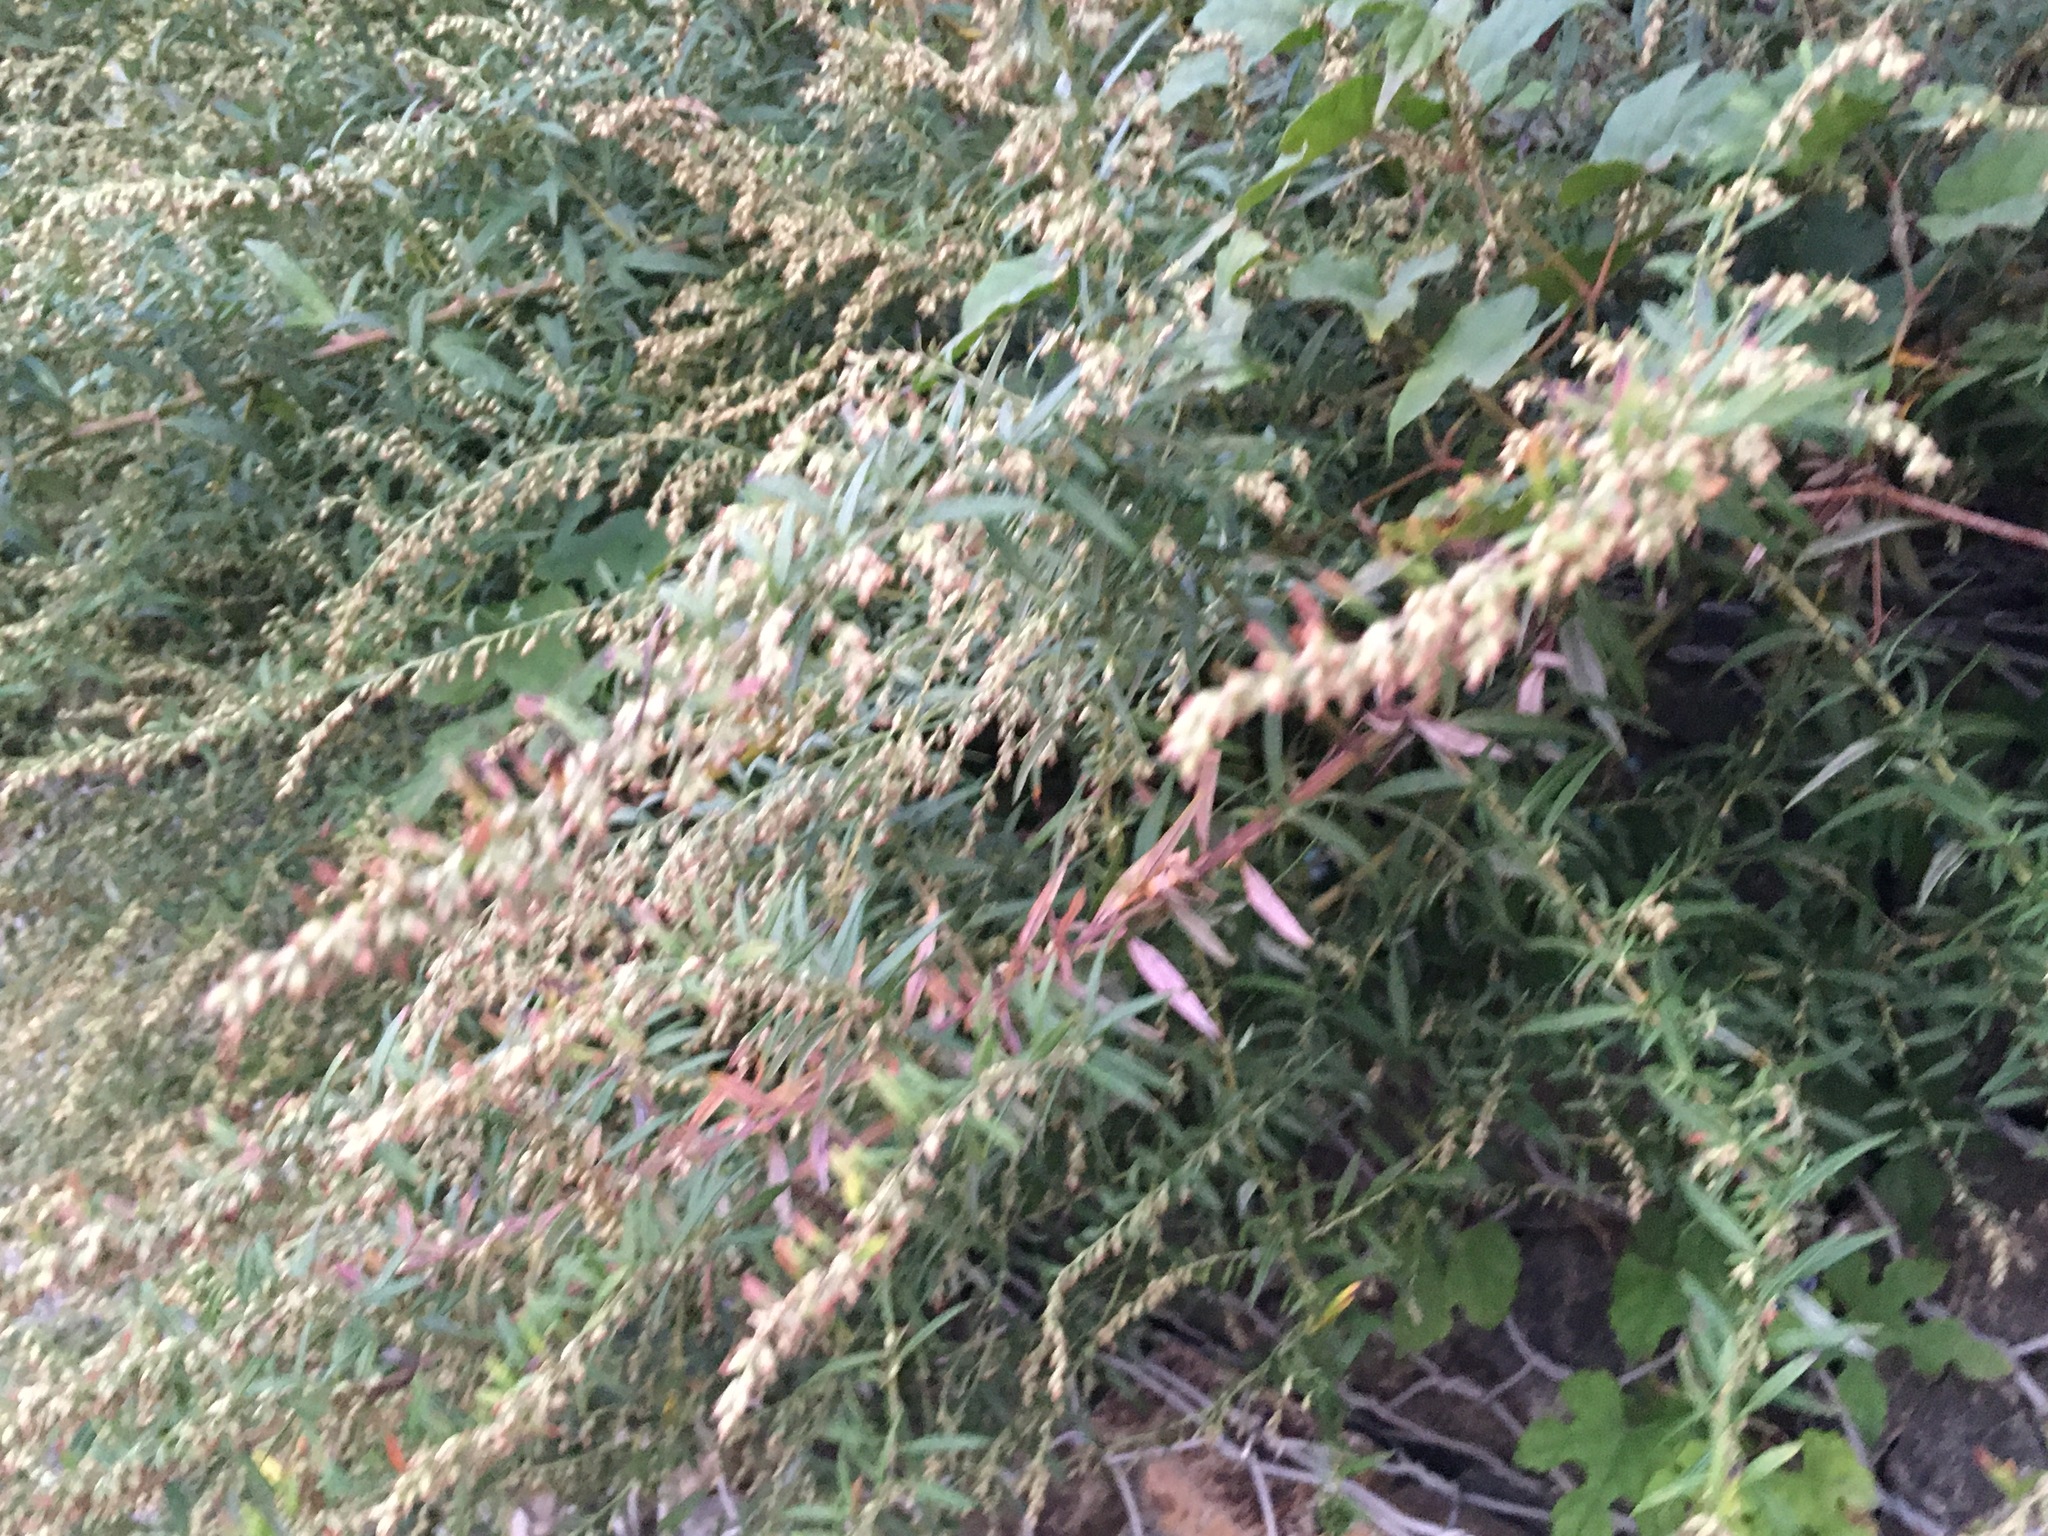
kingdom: Plantae
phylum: Tracheophyta
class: Magnoliopsida
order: Asterales
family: Asteraceae
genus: Artemisia
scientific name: Artemisia vulgaris
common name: Mugwort
